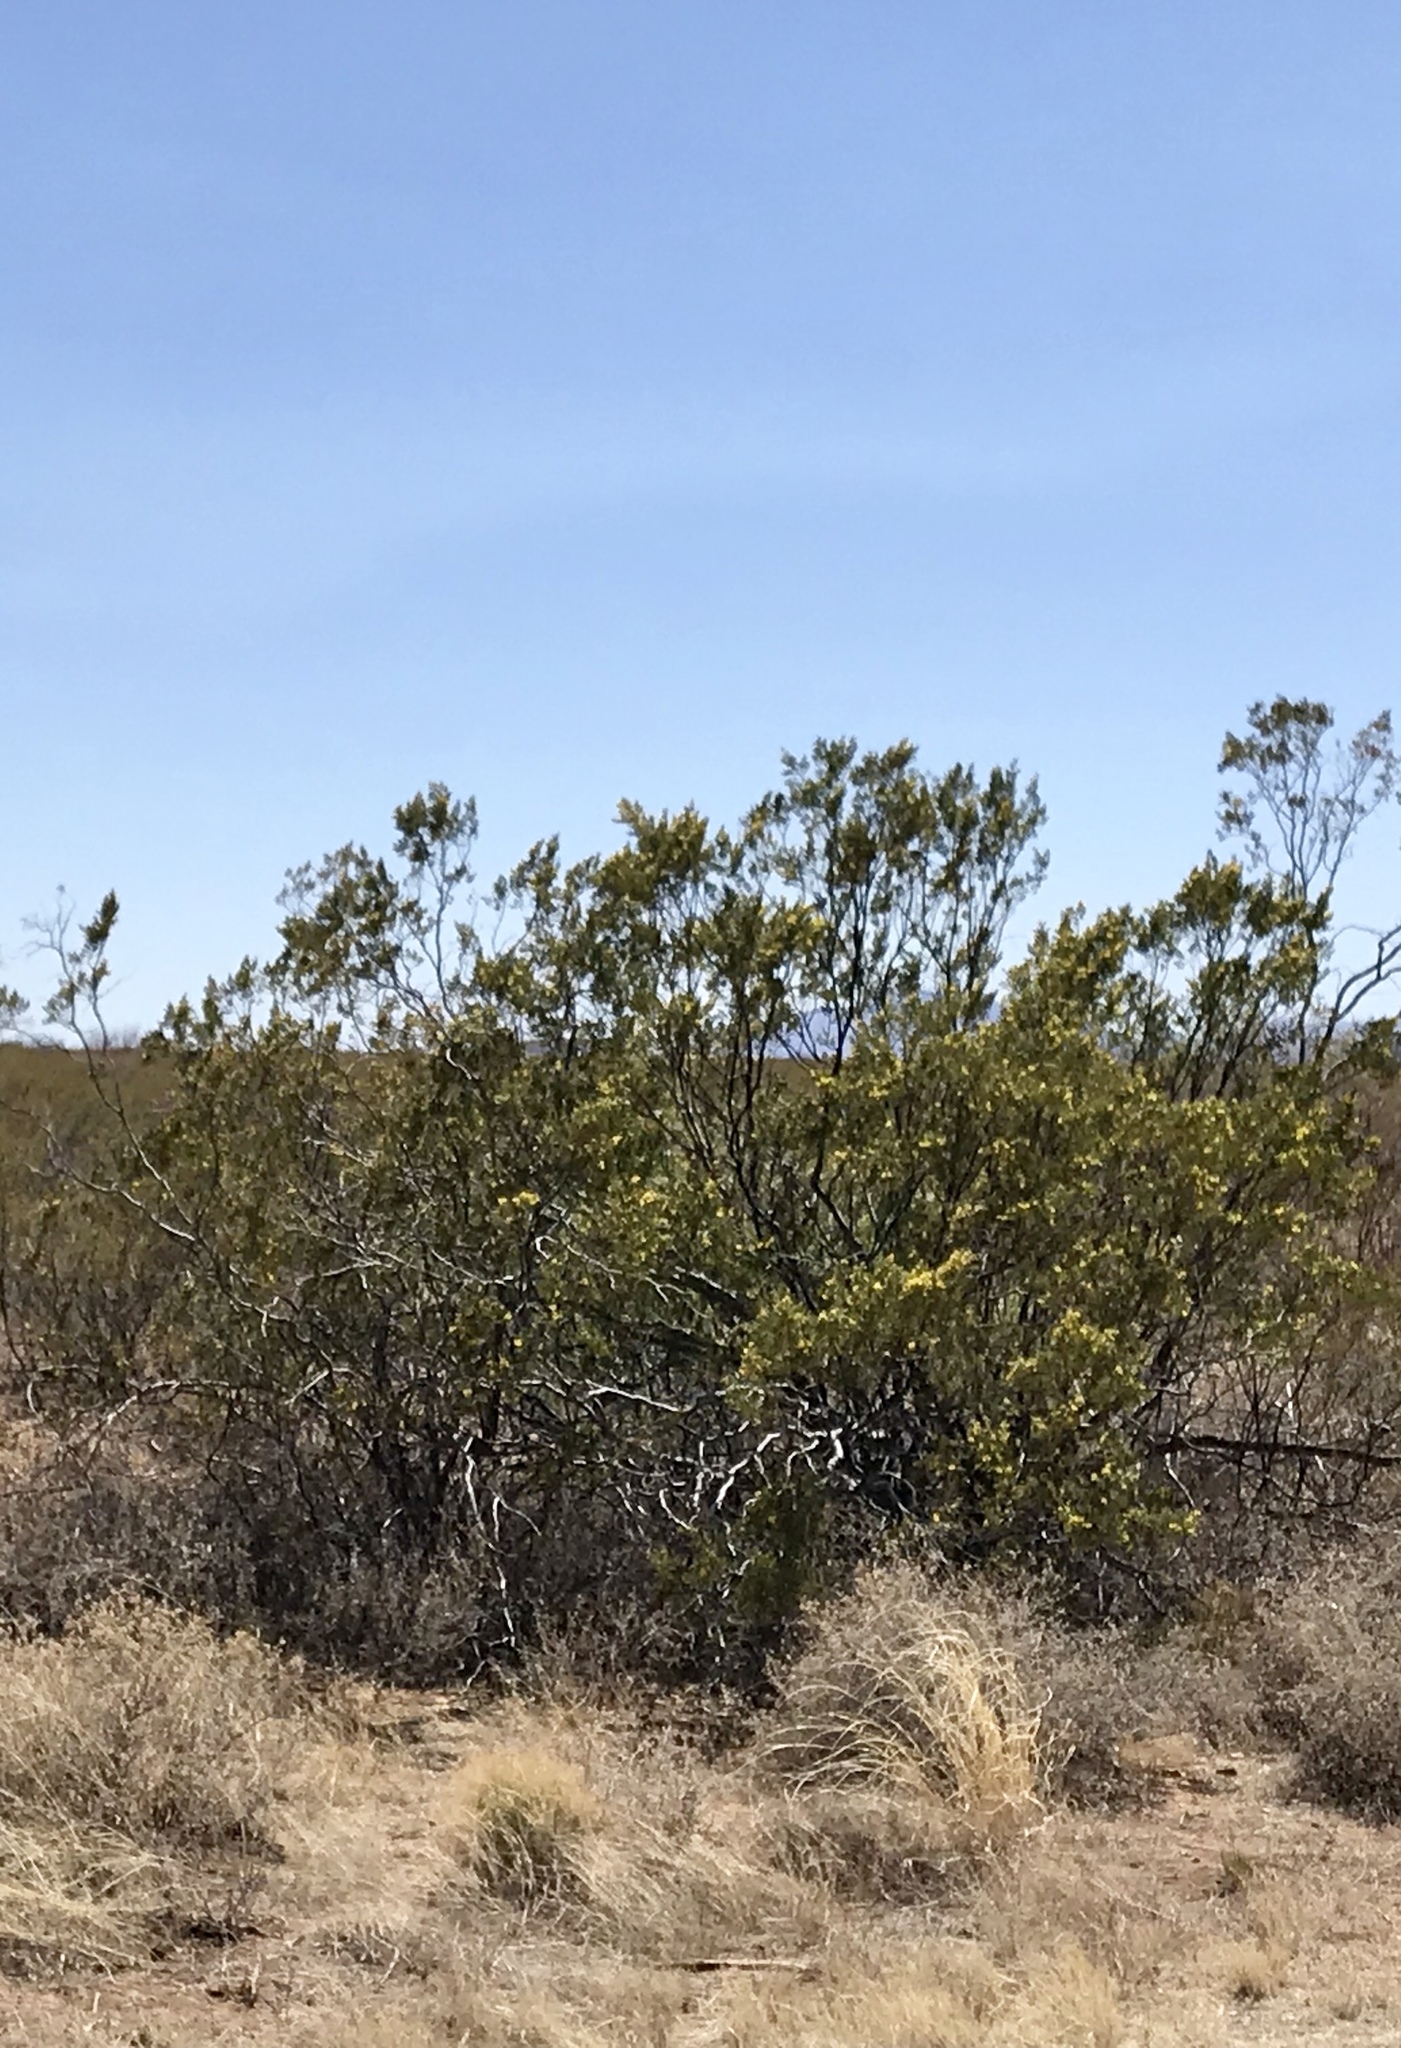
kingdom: Plantae
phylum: Tracheophyta
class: Magnoliopsida
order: Zygophyllales
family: Zygophyllaceae
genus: Larrea
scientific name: Larrea tridentata
